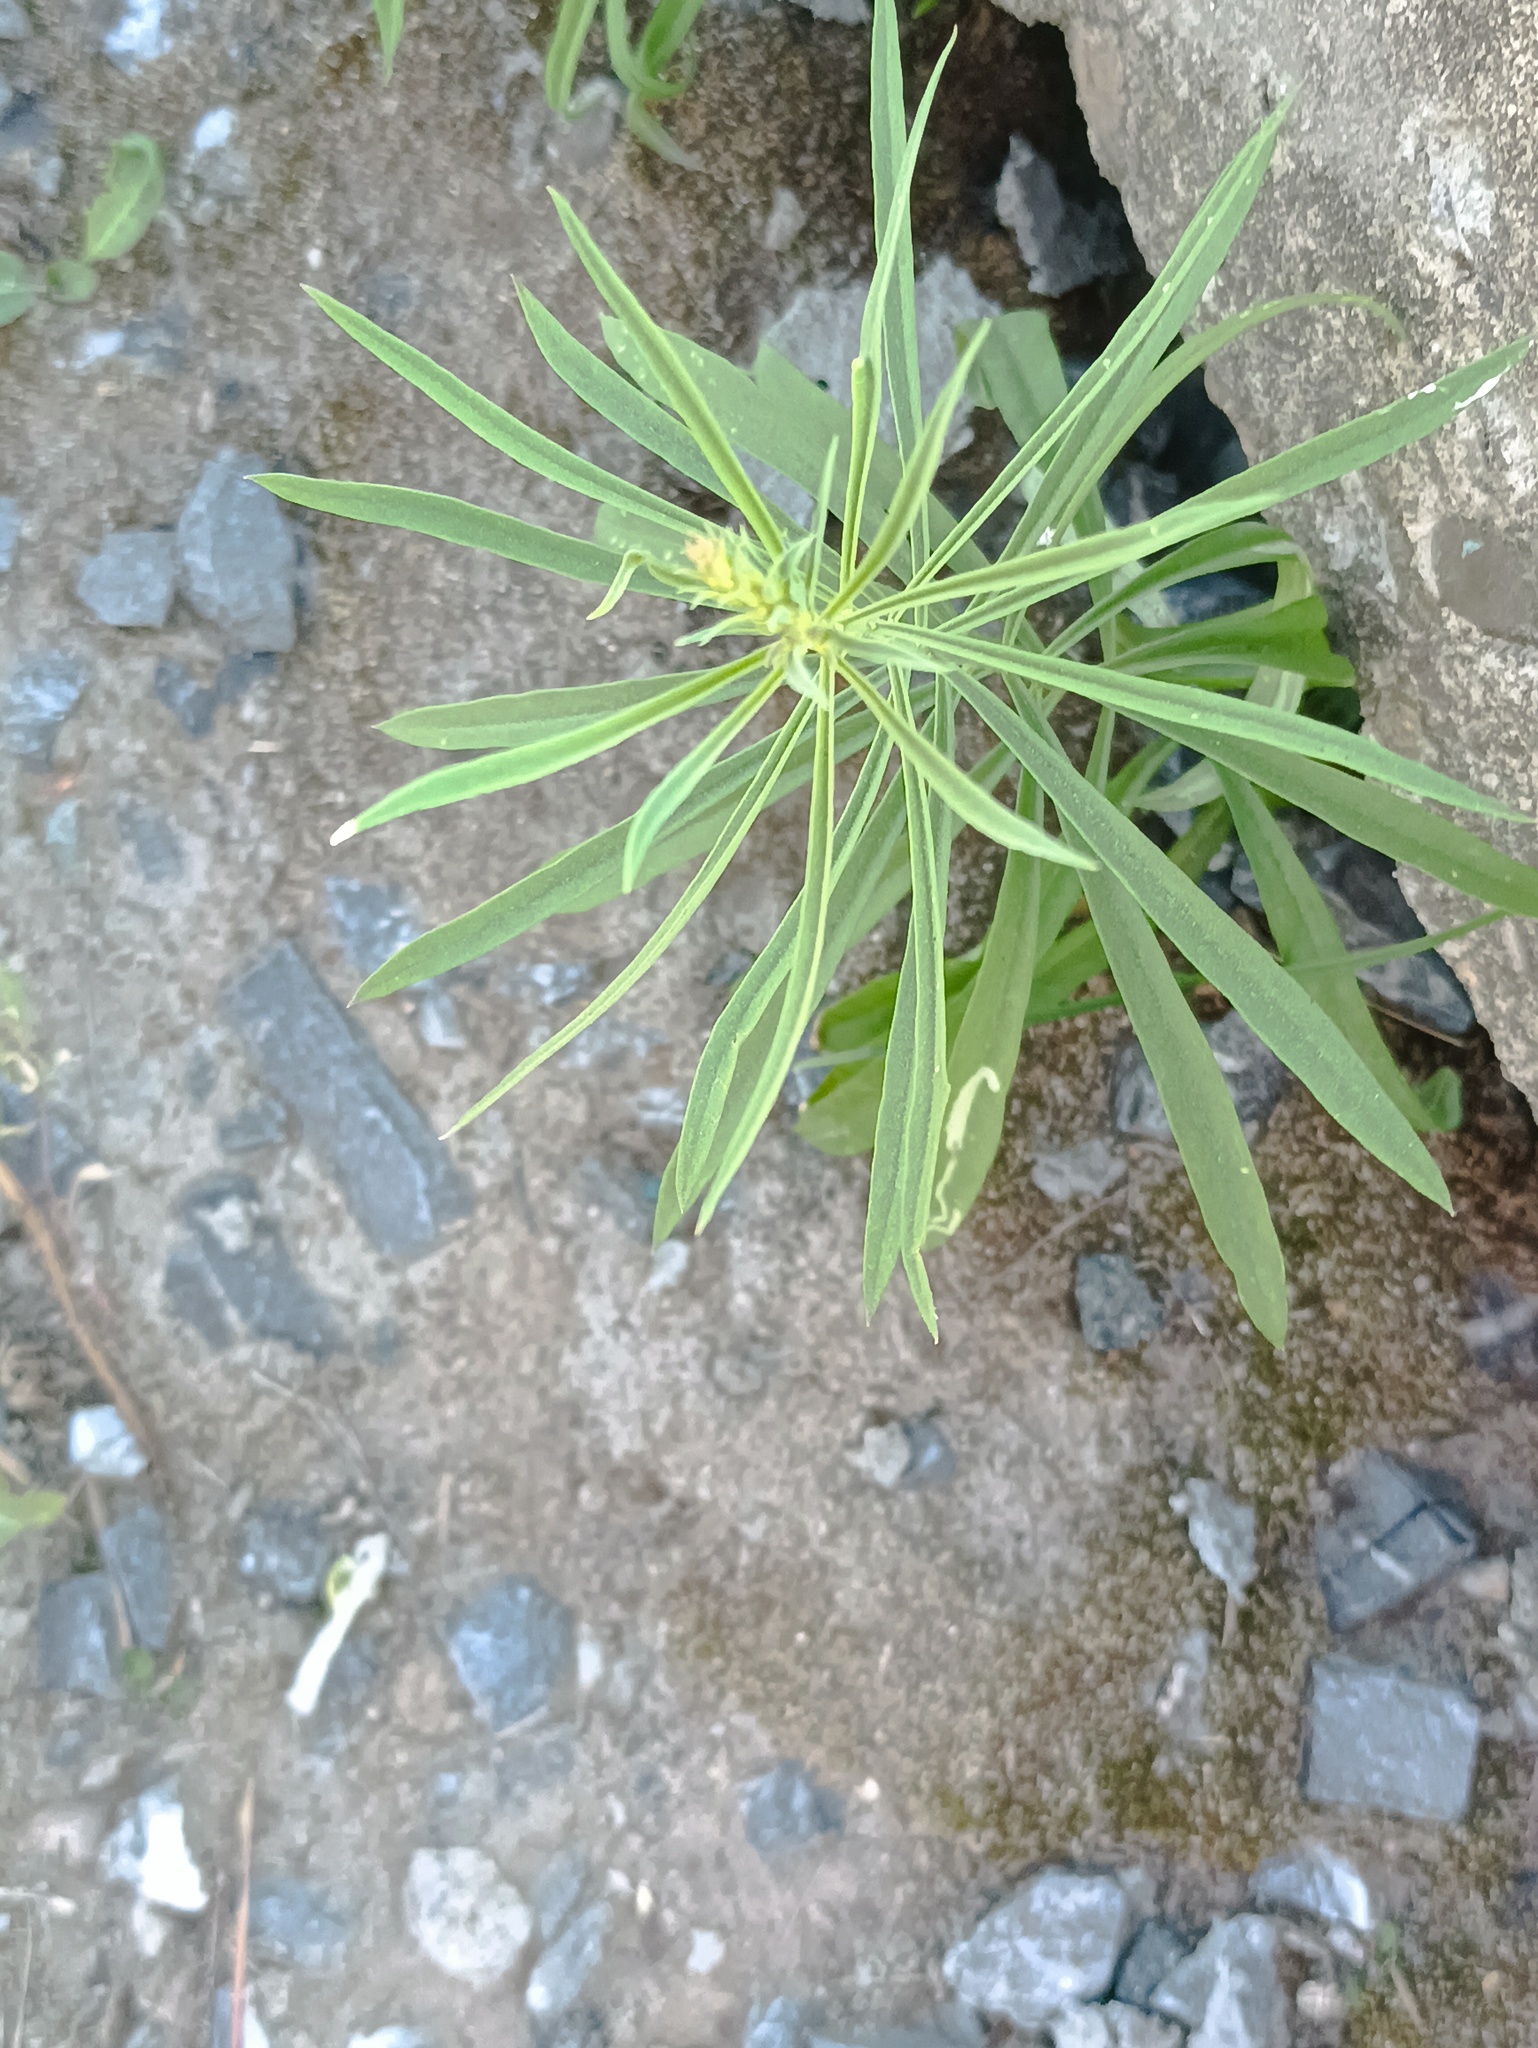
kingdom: Plantae
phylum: Tracheophyta
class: Magnoliopsida
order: Asterales
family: Asteraceae
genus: Erigeron
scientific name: Erigeron canadensis
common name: Canadian fleabane
